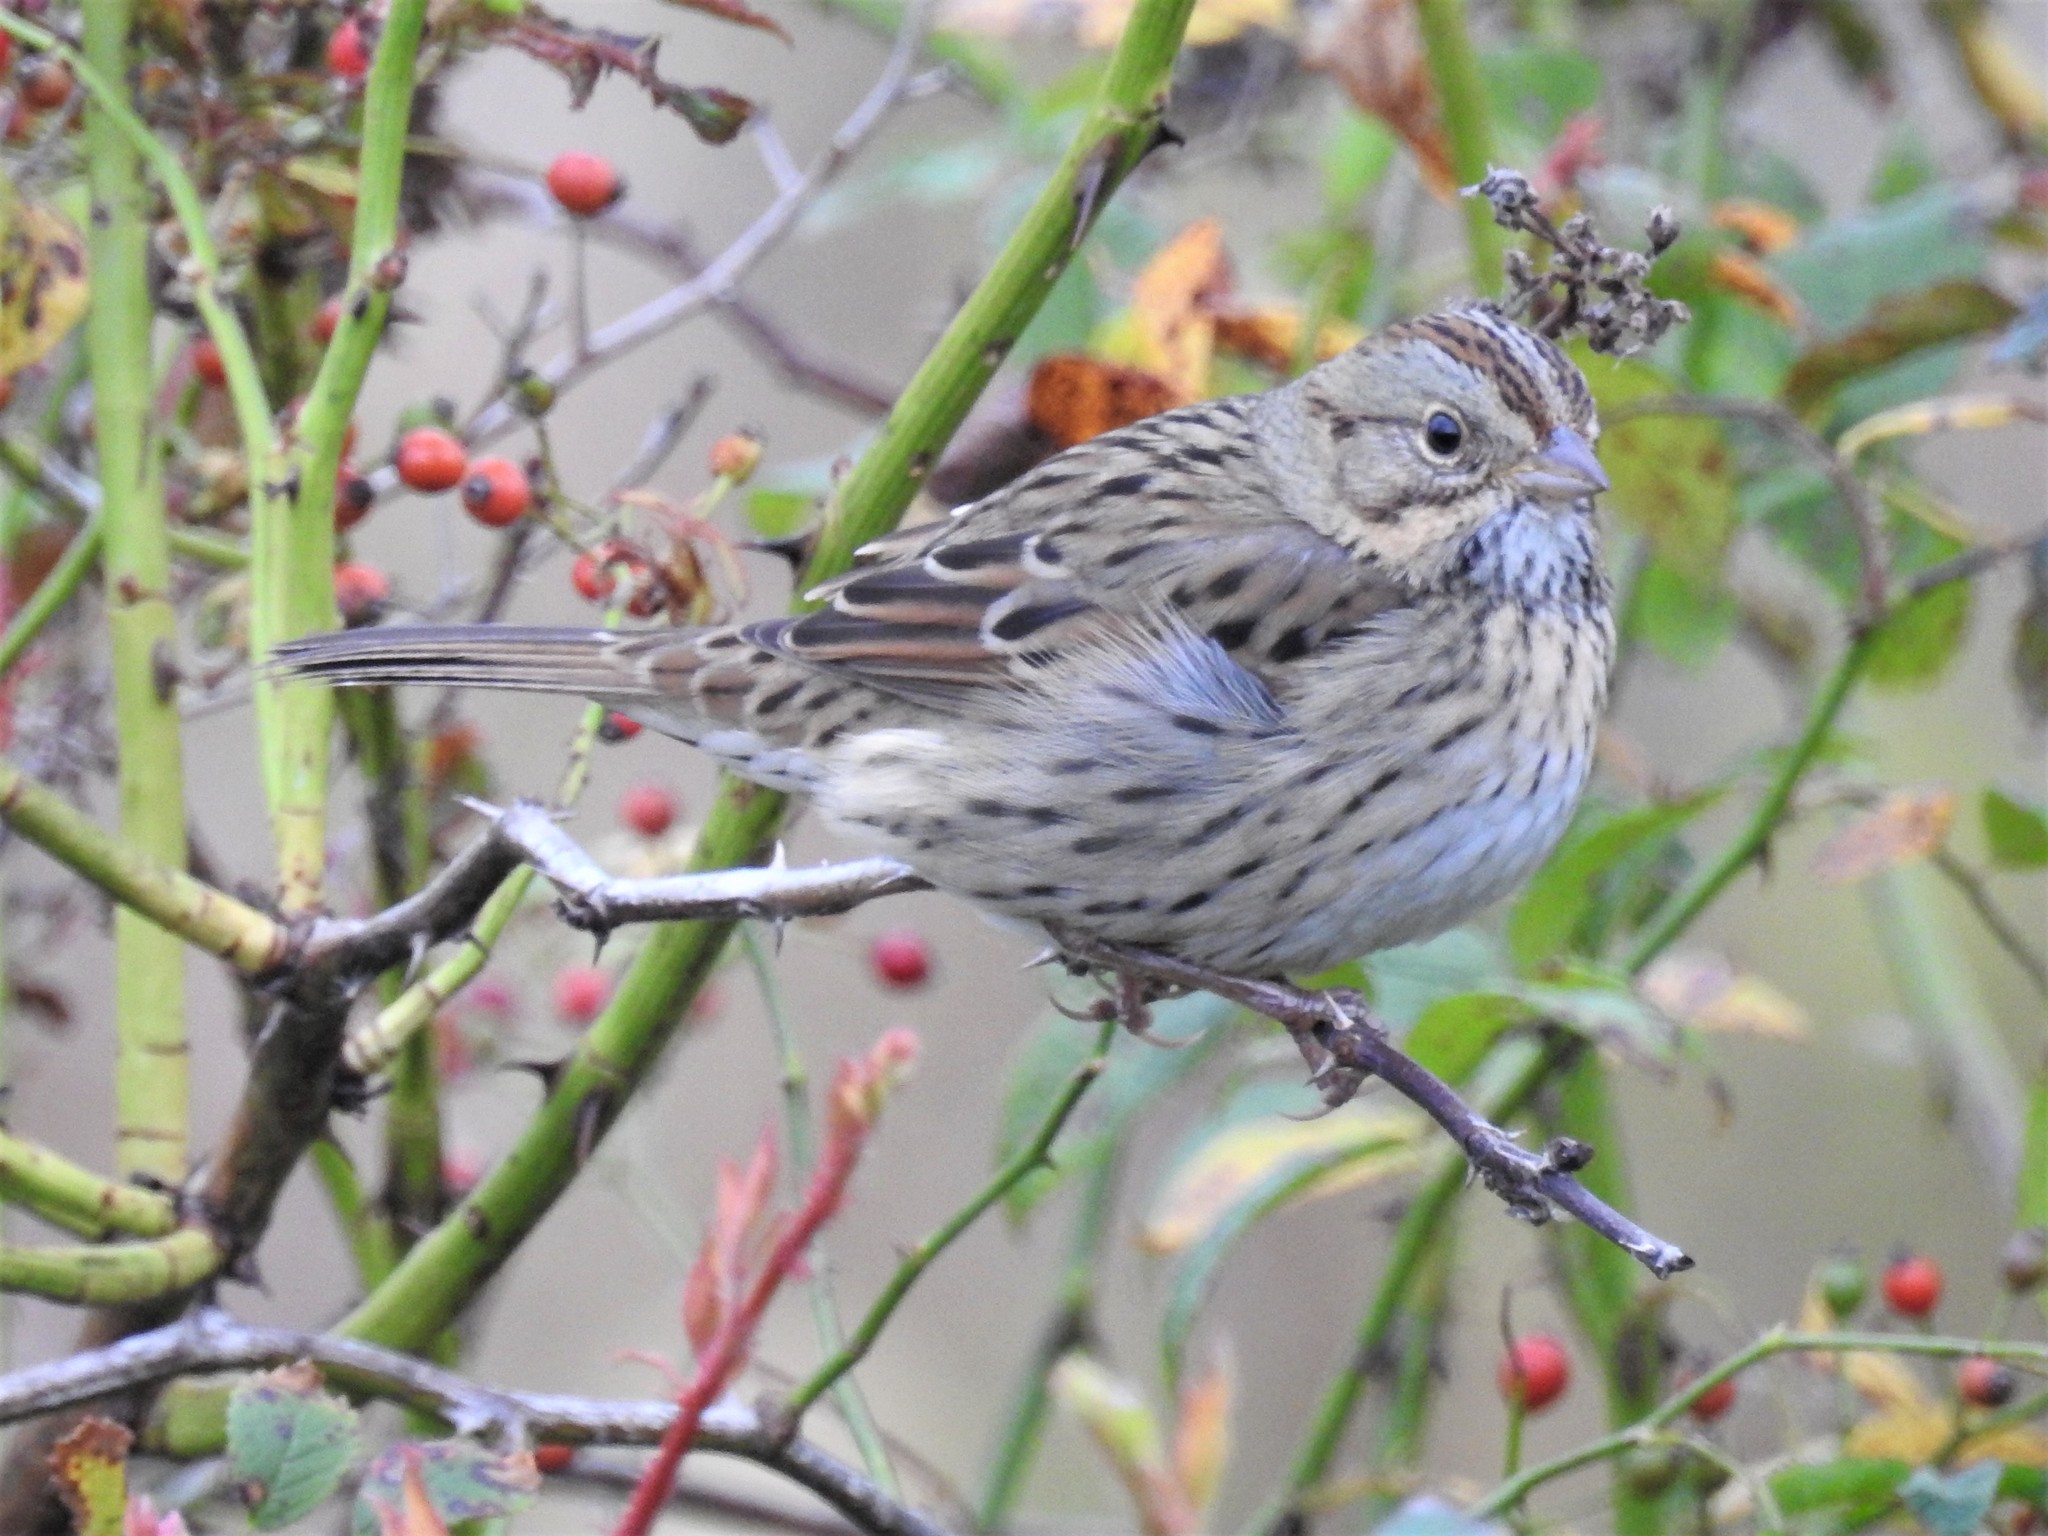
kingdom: Animalia
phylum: Chordata
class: Aves
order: Passeriformes
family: Passerellidae
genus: Melospiza
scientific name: Melospiza lincolnii
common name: Lincoln's sparrow
